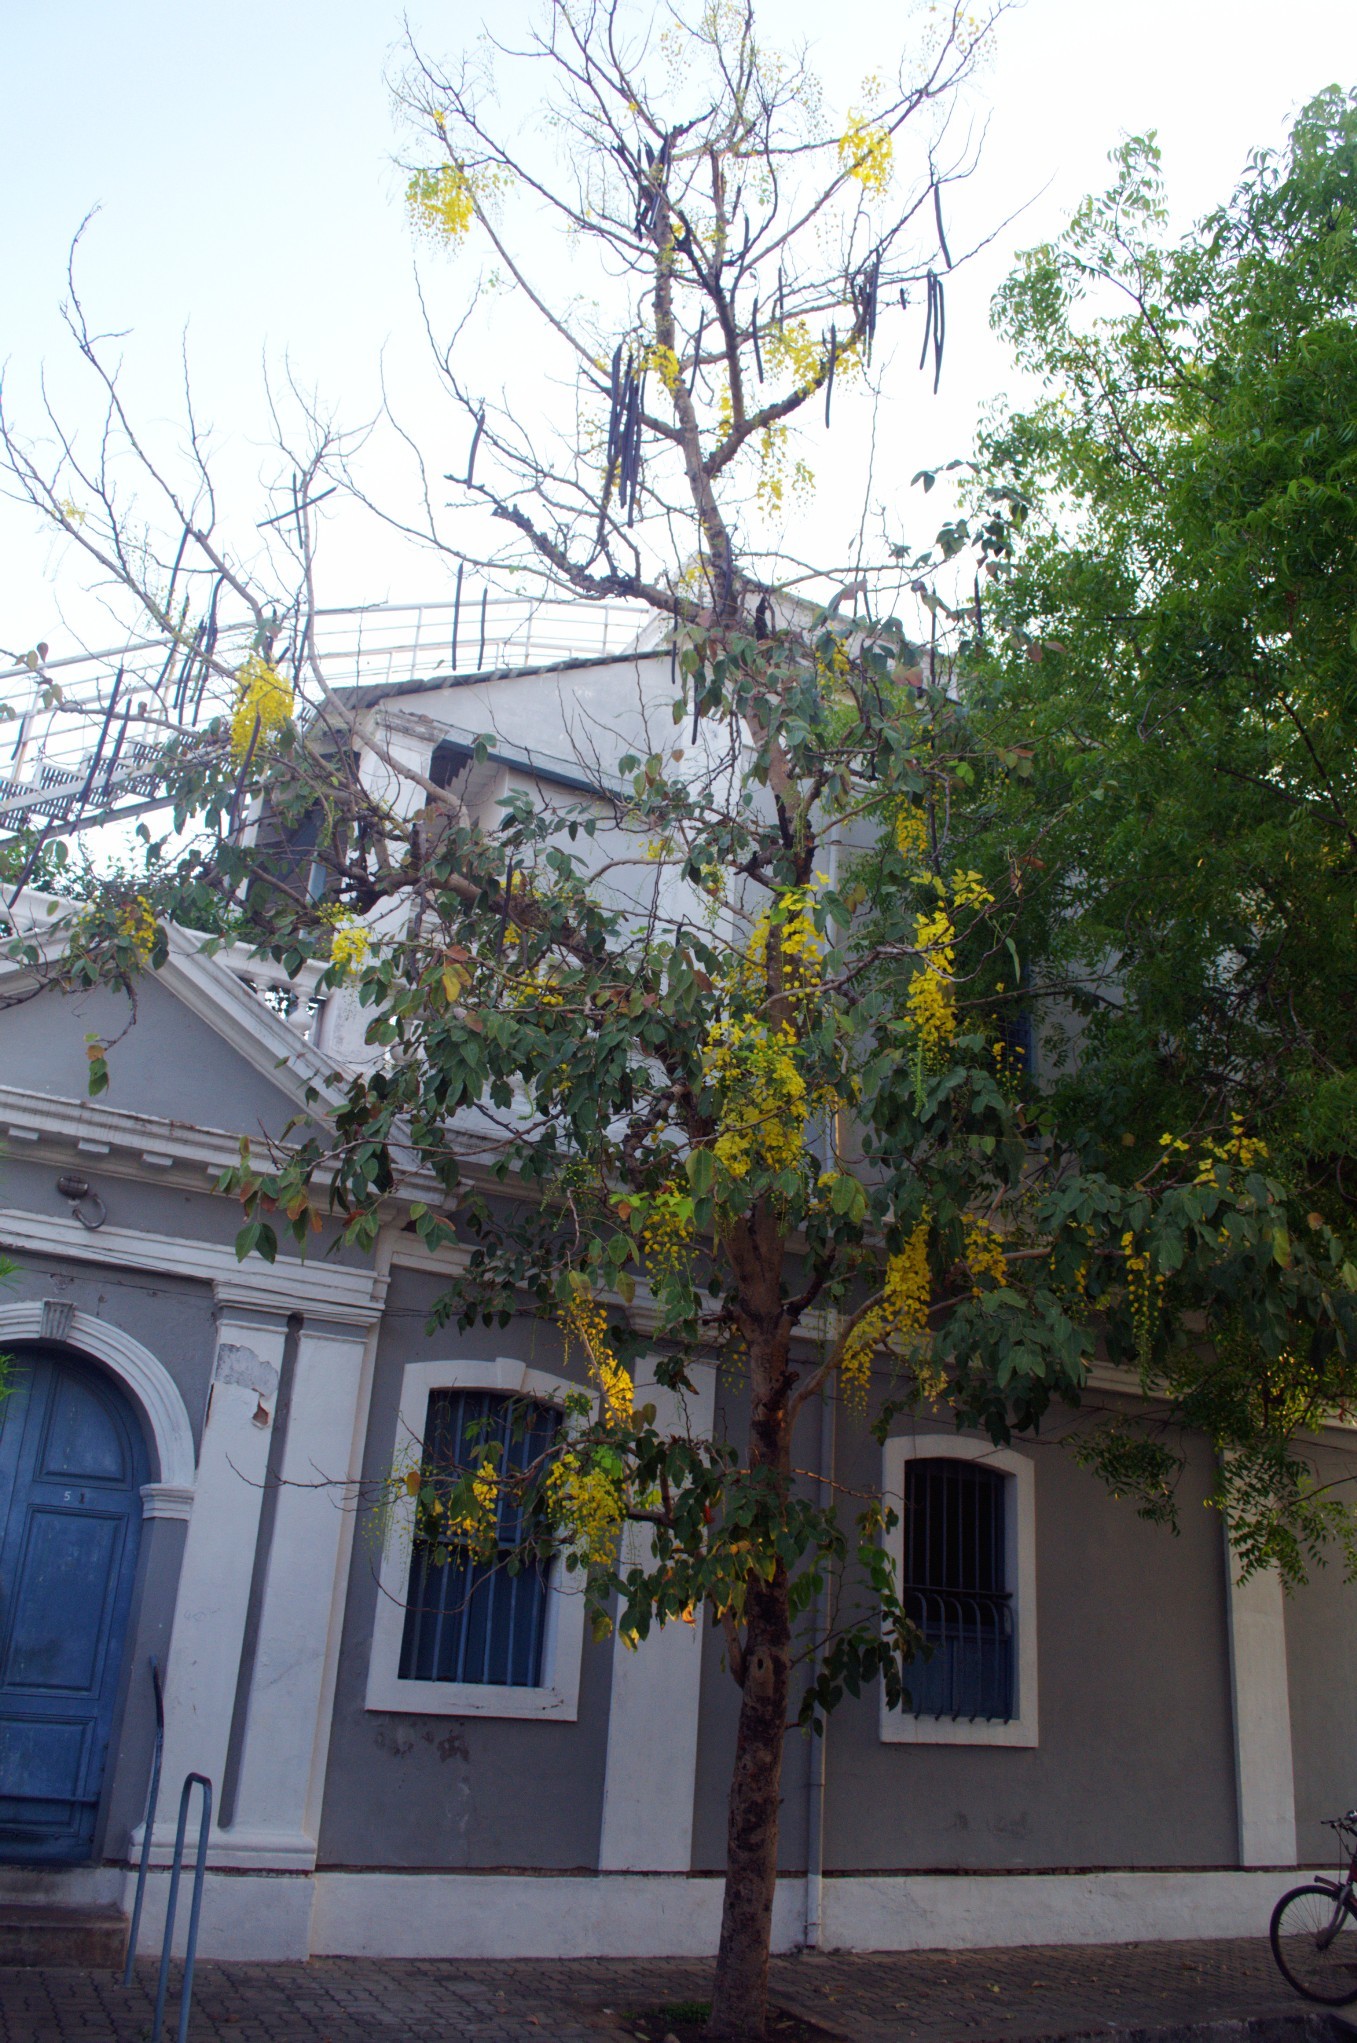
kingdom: Plantae
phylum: Tracheophyta
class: Magnoliopsida
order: Fabales
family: Fabaceae
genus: Cassia
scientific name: Cassia fistula
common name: Golden shower
